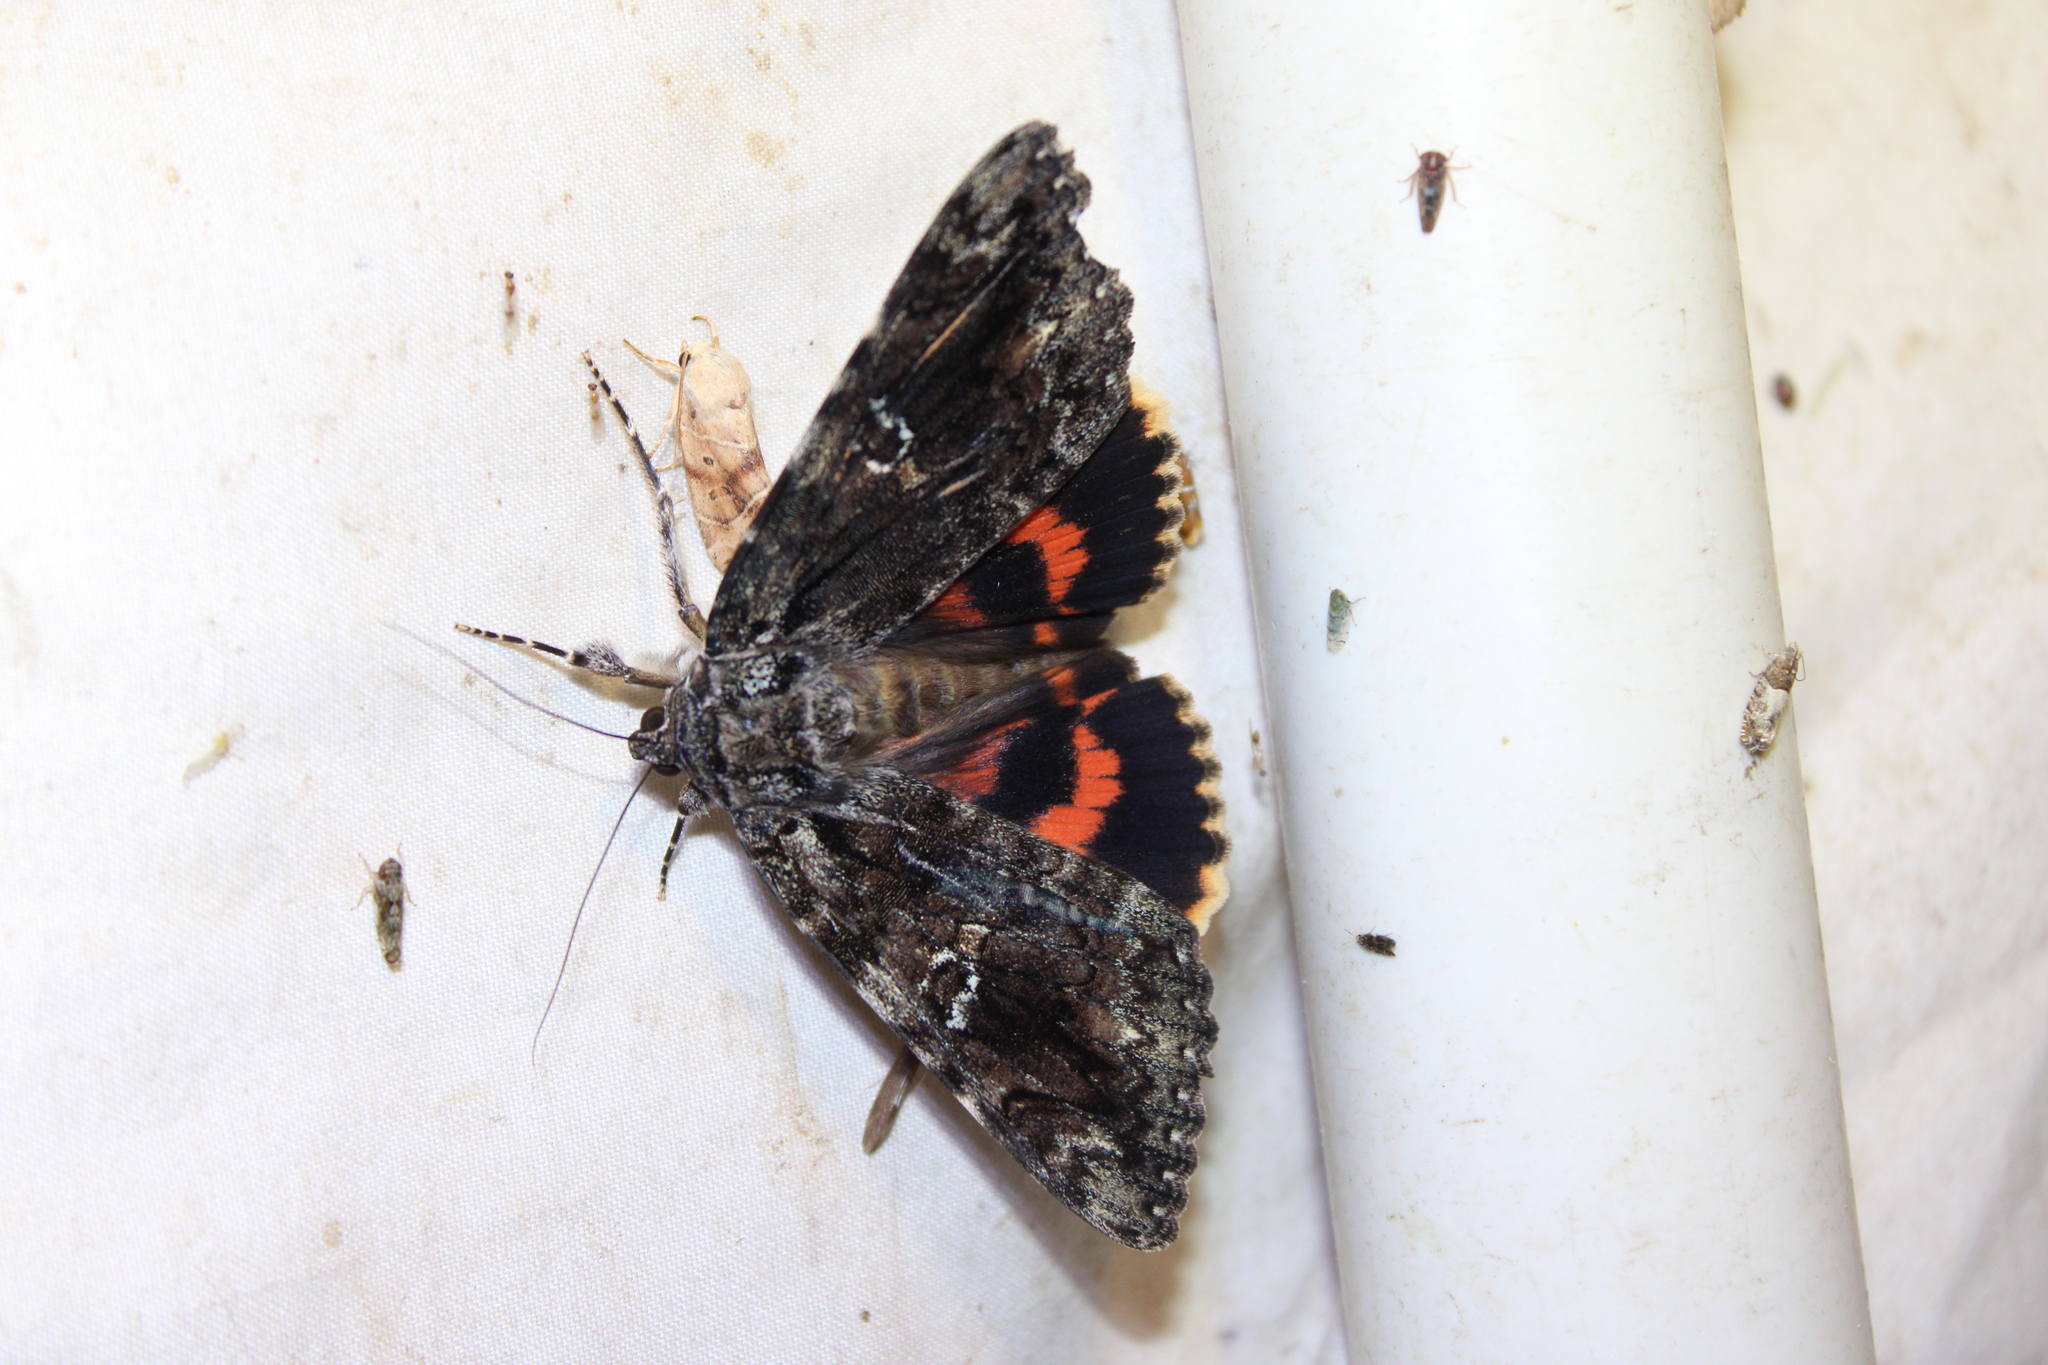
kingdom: Animalia
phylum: Arthropoda
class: Insecta
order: Lepidoptera
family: Erebidae
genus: Catocala
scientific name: Catocala ilia
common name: Ilia underwing
